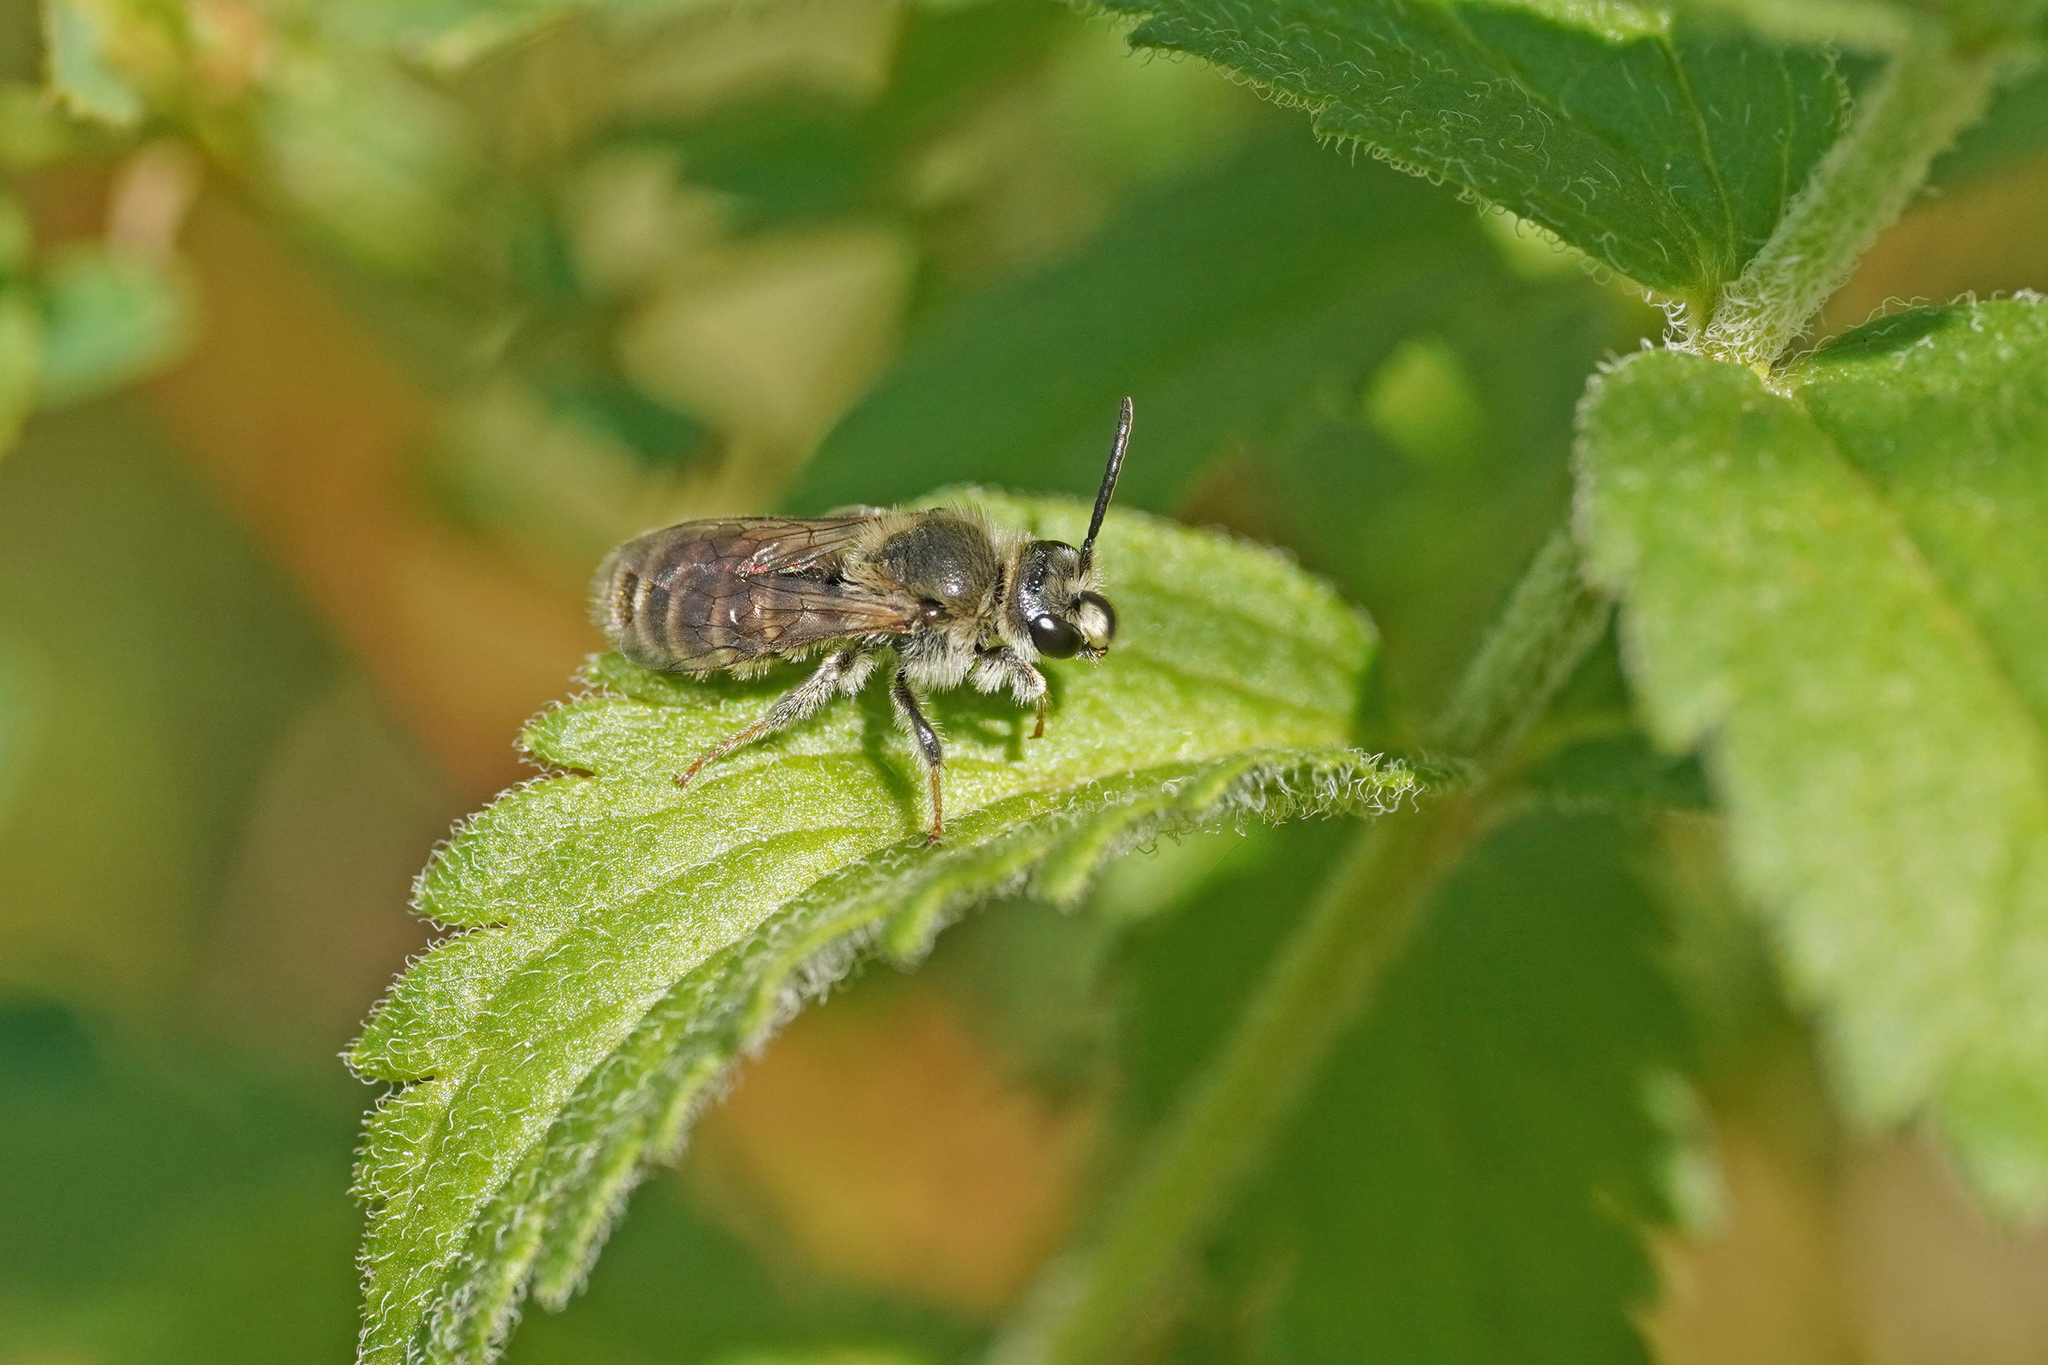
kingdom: Animalia
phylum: Arthropoda
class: Insecta
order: Hymenoptera
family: Halictidae
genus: Rophites
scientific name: Rophites canus
